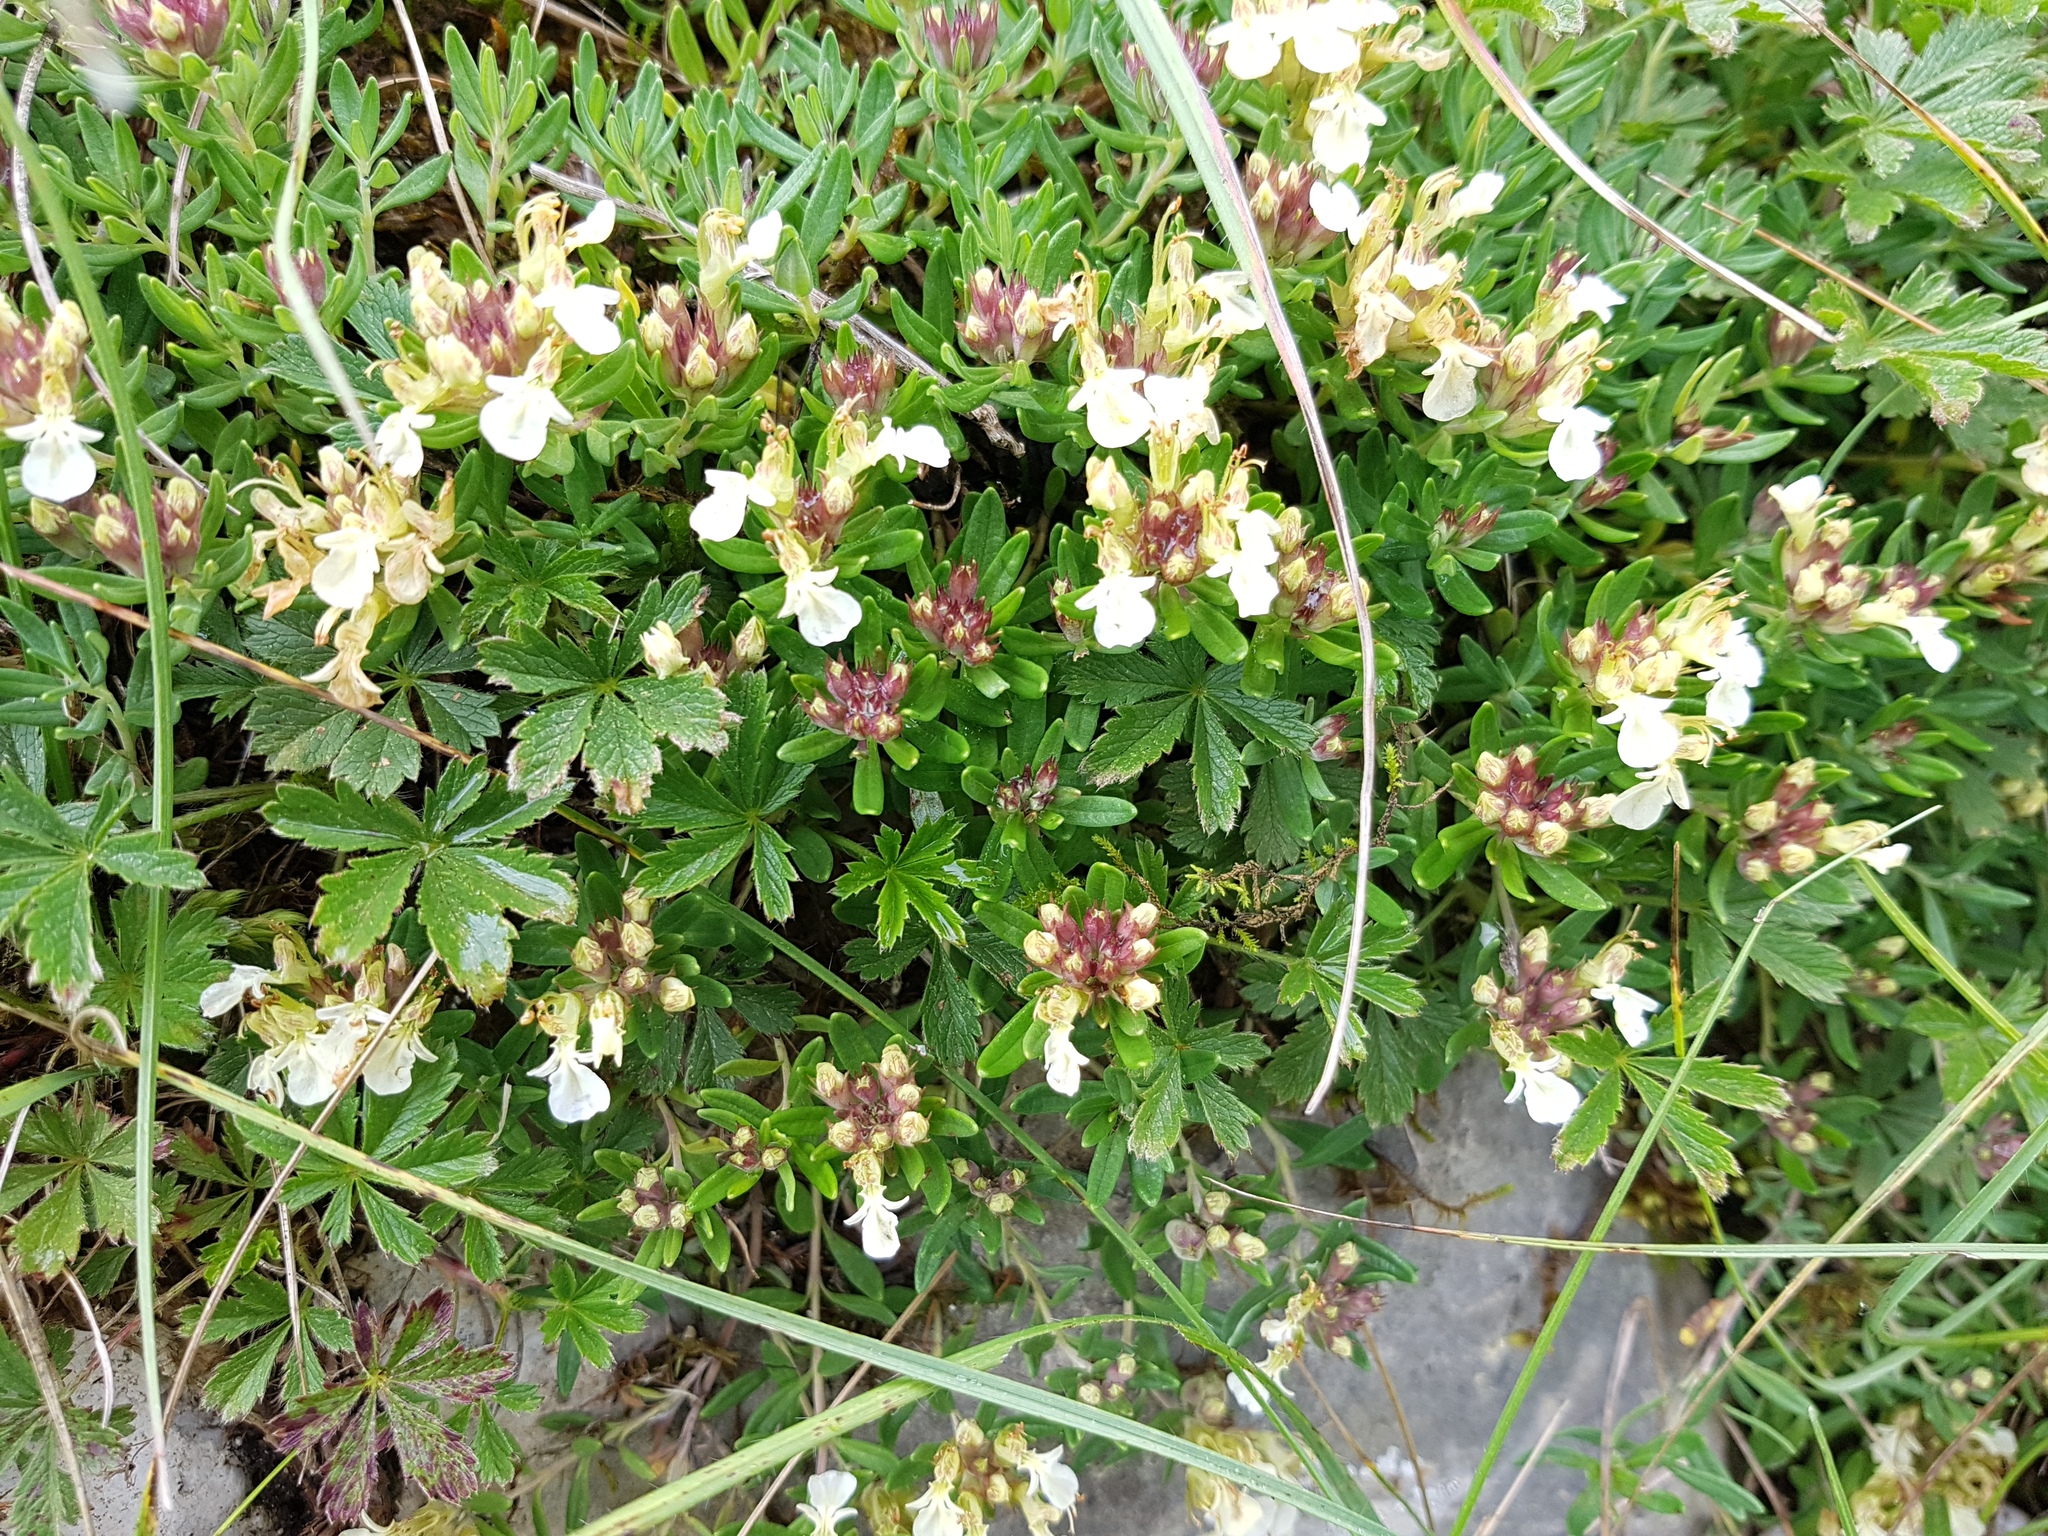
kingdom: Plantae
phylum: Tracheophyta
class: Magnoliopsida
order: Lamiales
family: Lamiaceae
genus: Teucrium
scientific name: Teucrium montanum
